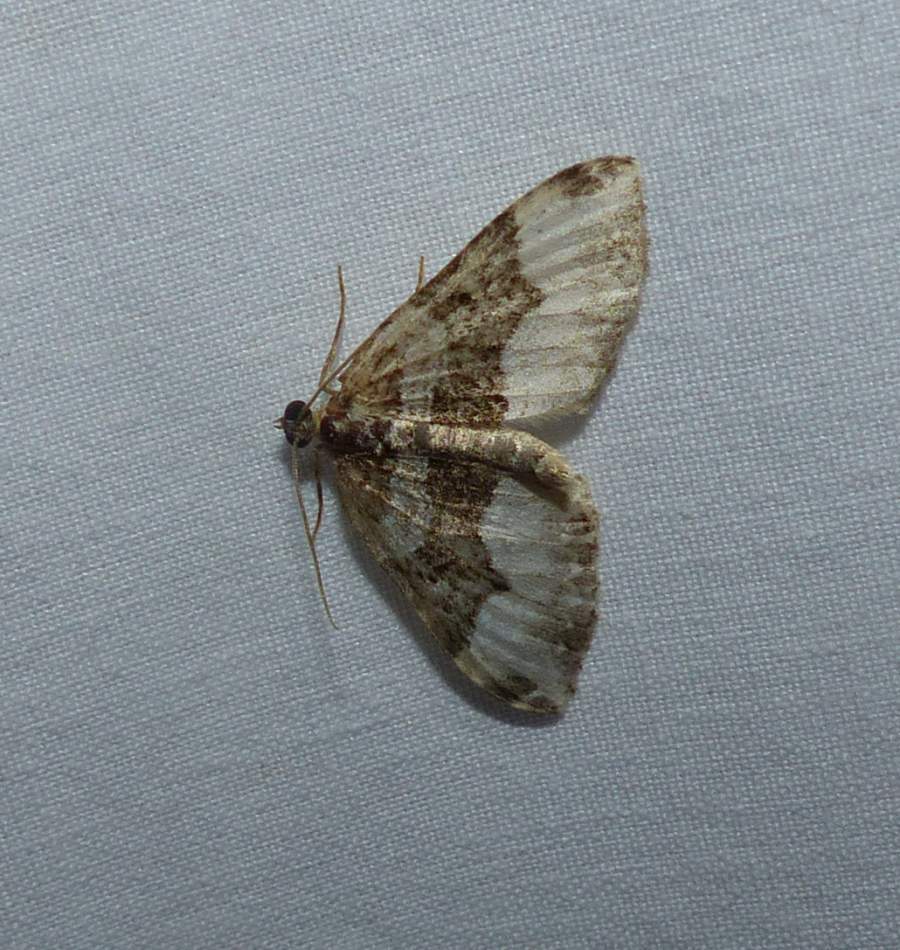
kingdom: Animalia
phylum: Arthropoda
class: Insecta
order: Lepidoptera
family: Geometridae
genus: Euphyia
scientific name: Euphyia intermediata
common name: Sharp-angled carpet
